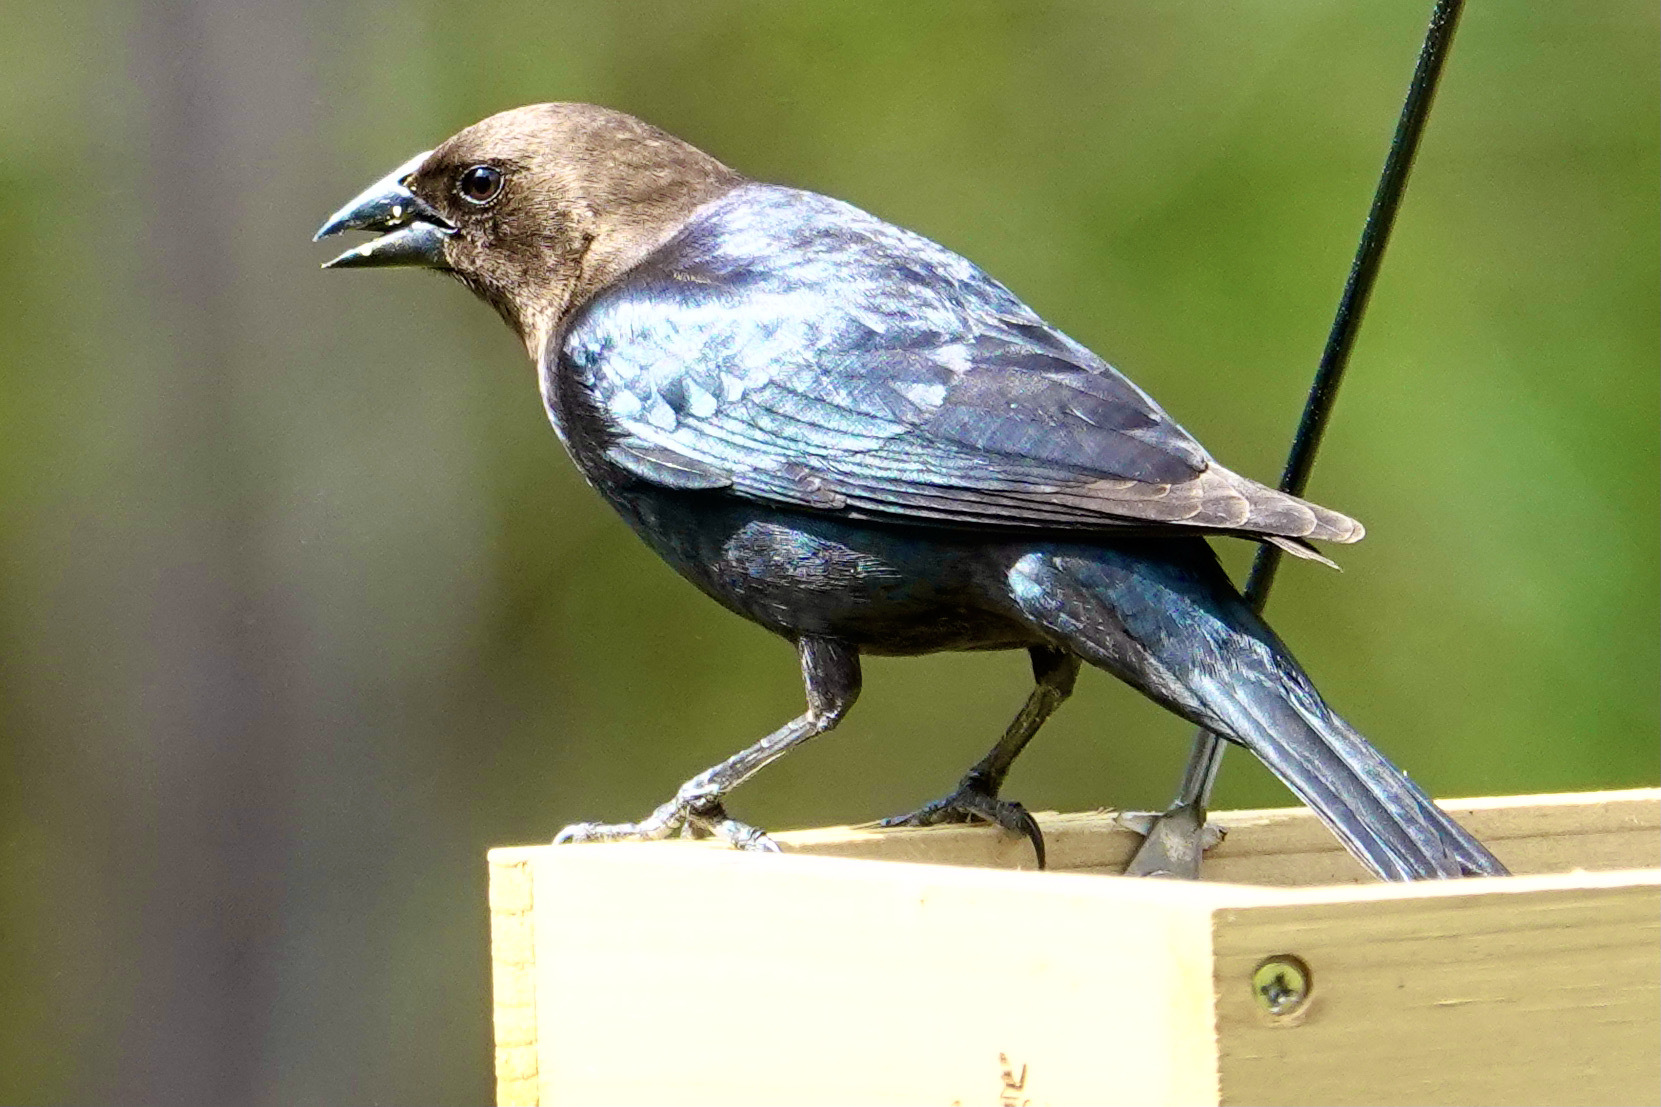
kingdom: Animalia
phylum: Chordata
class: Aves
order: Passeriformes
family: Icteridae
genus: Molothrus
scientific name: Molothrus ater
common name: Brown-headed cowbird
